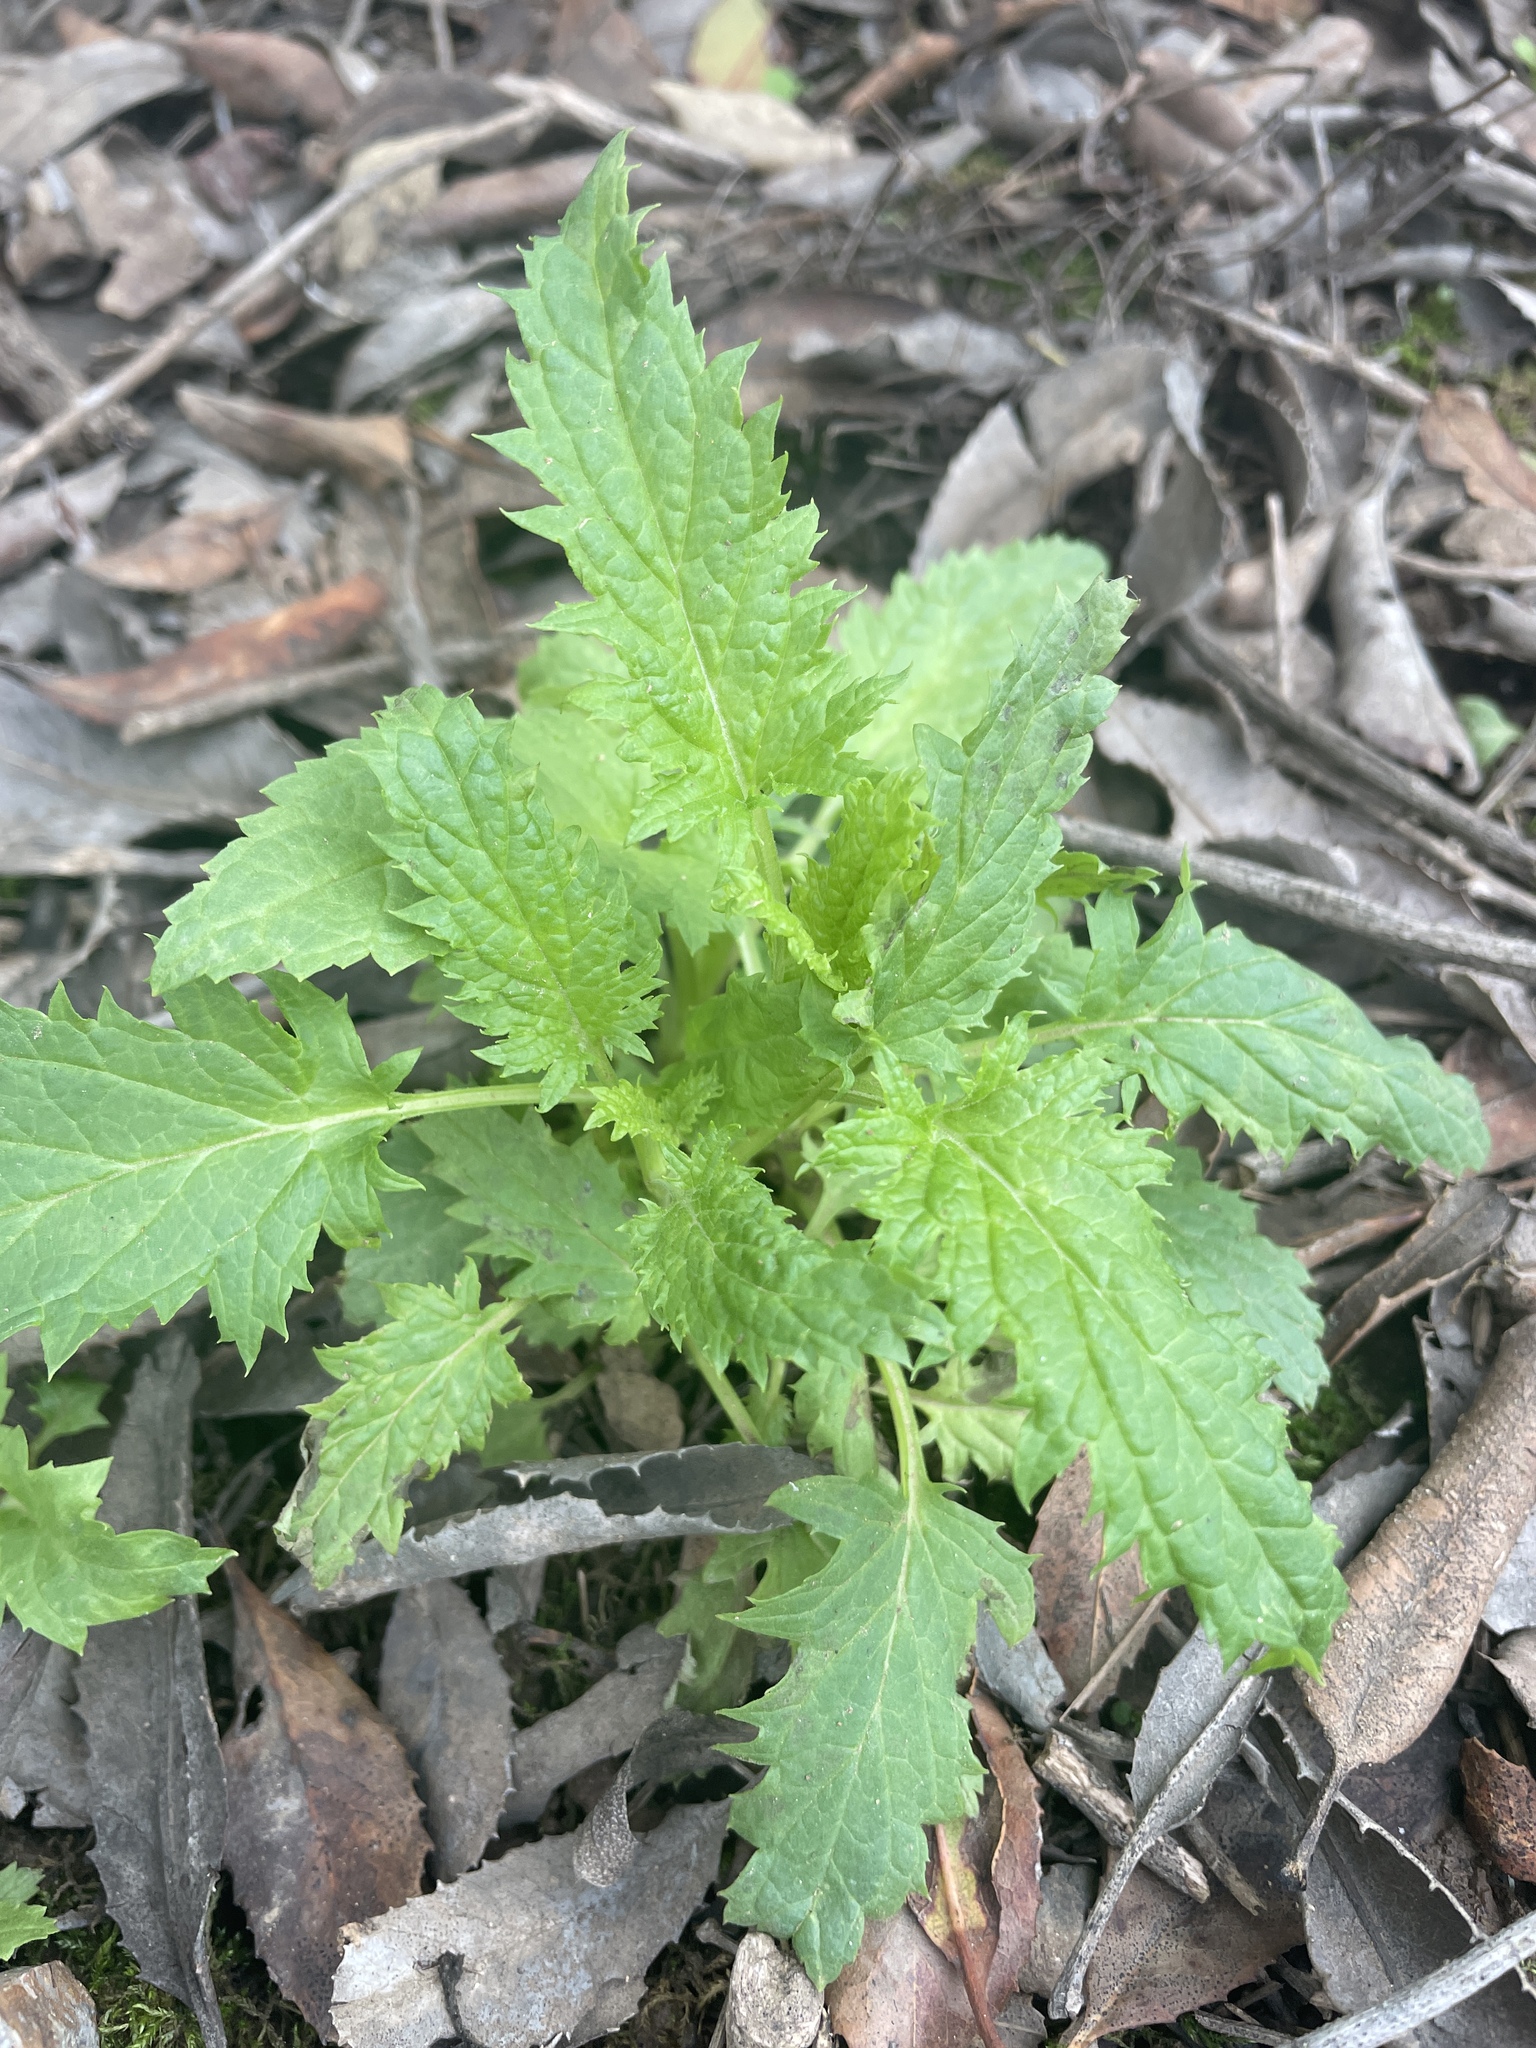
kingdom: Plantae
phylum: Tracheophyta
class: Magnoliopsida
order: Lamiales
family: Scrophulariaceae
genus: Scrophularia
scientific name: Scrophularia californica
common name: California figwort
